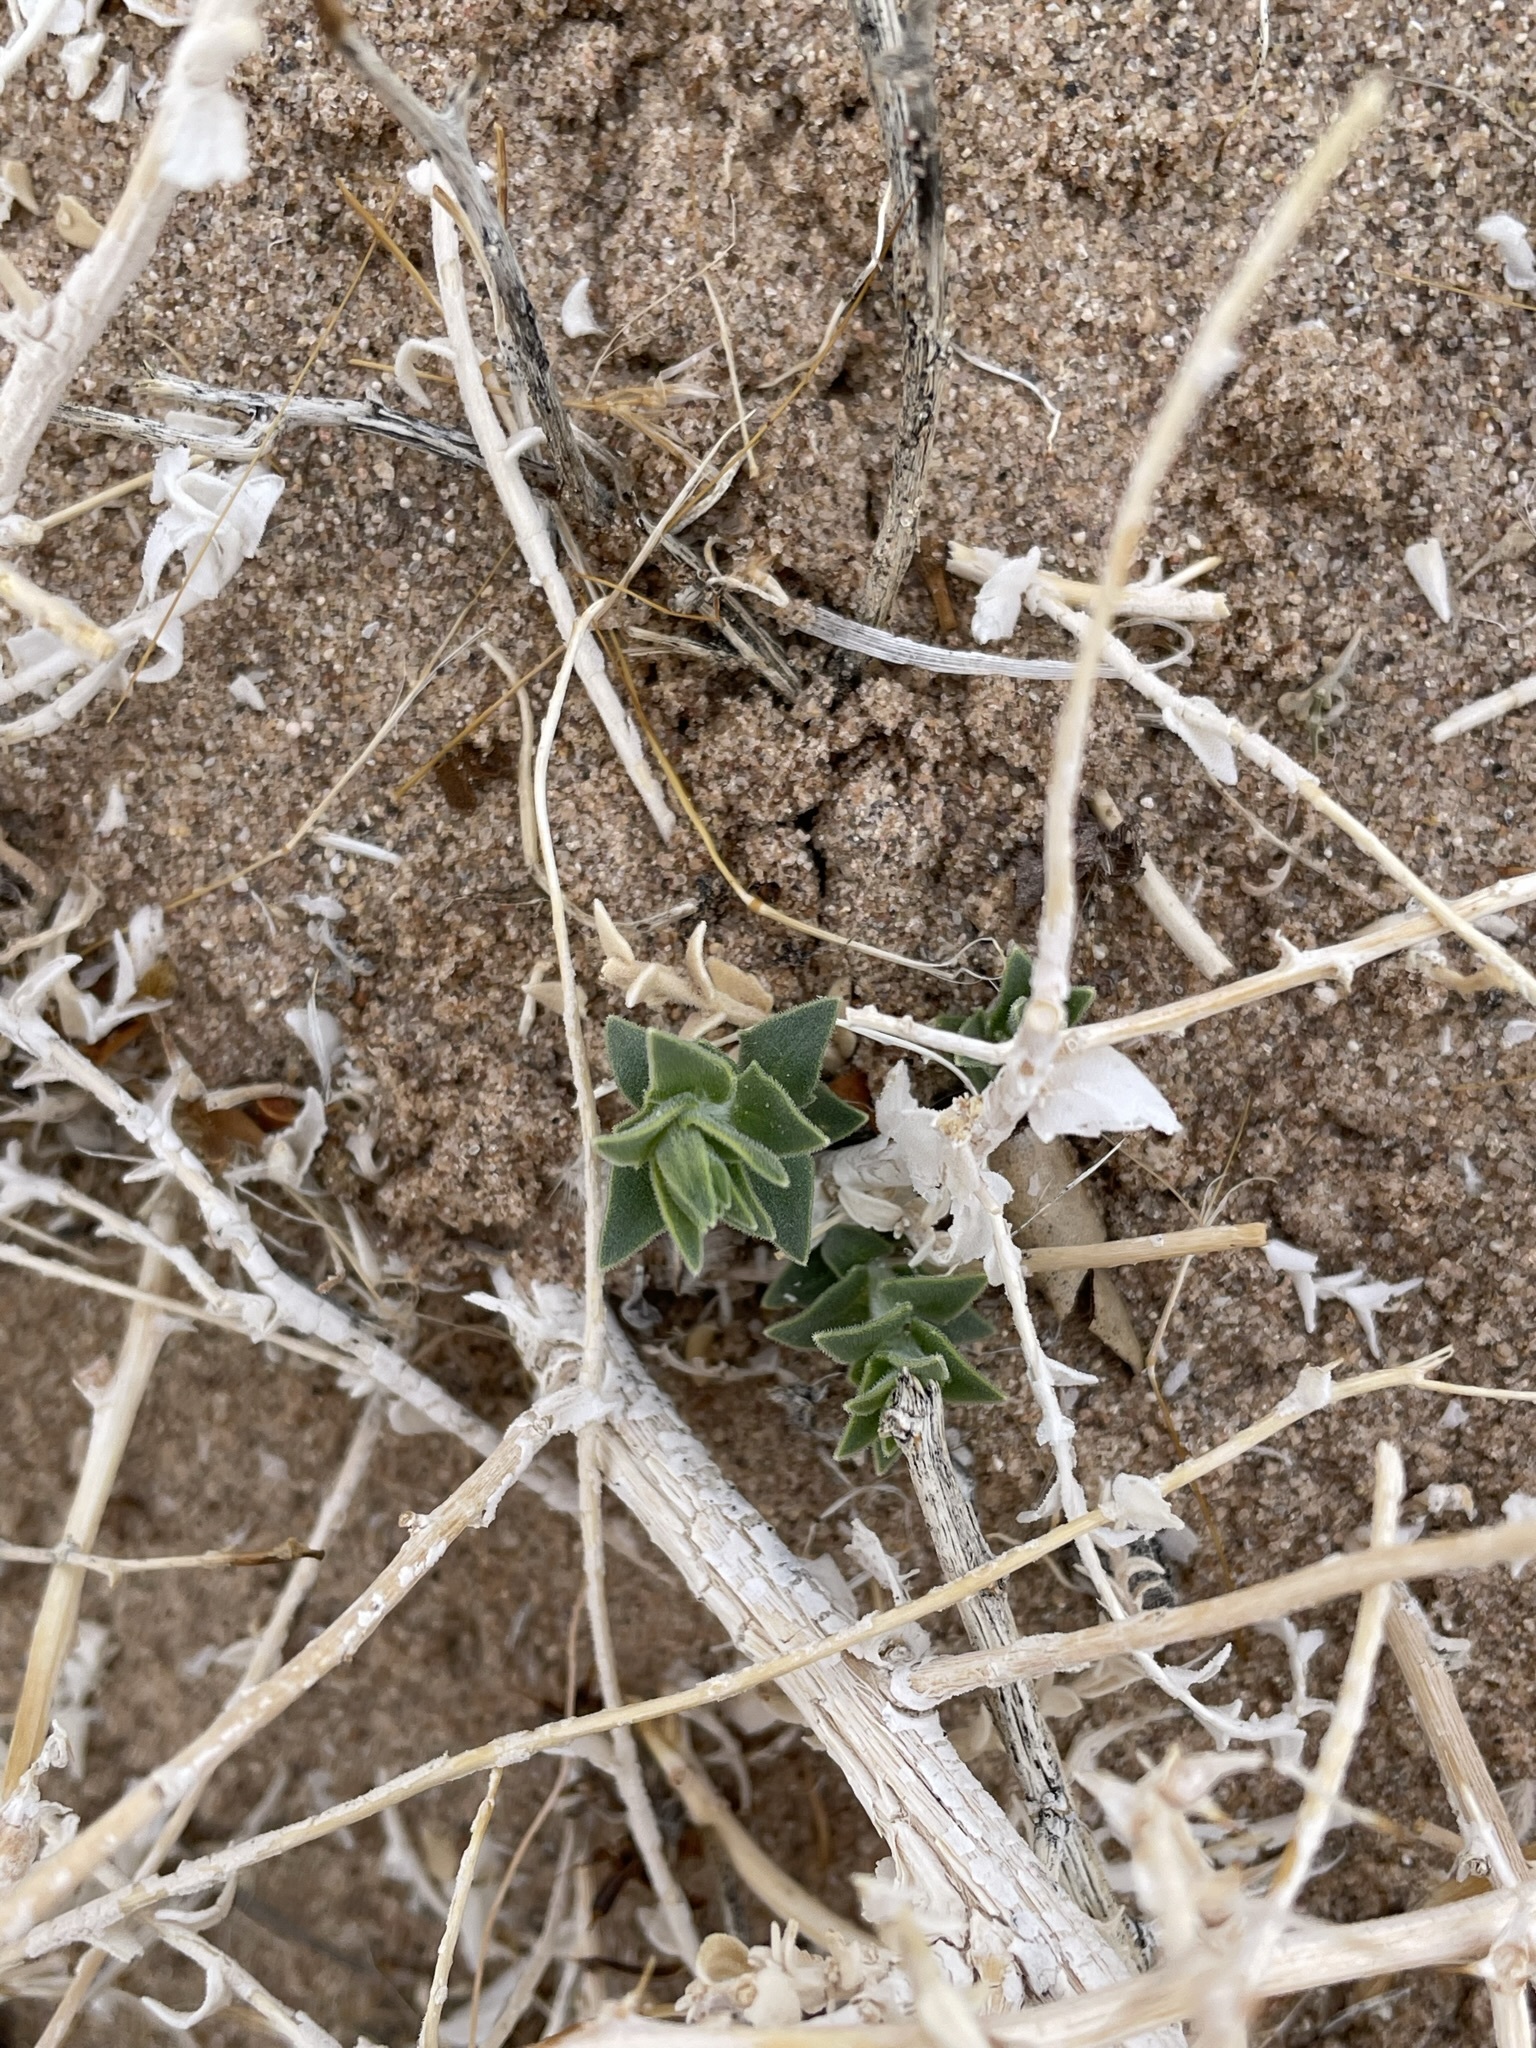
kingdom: Plantae
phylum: Tracheophyta
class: Magnoliopsida
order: Cornales
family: Loasaceae
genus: Petalonyx
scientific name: Petalonyx thurberi
